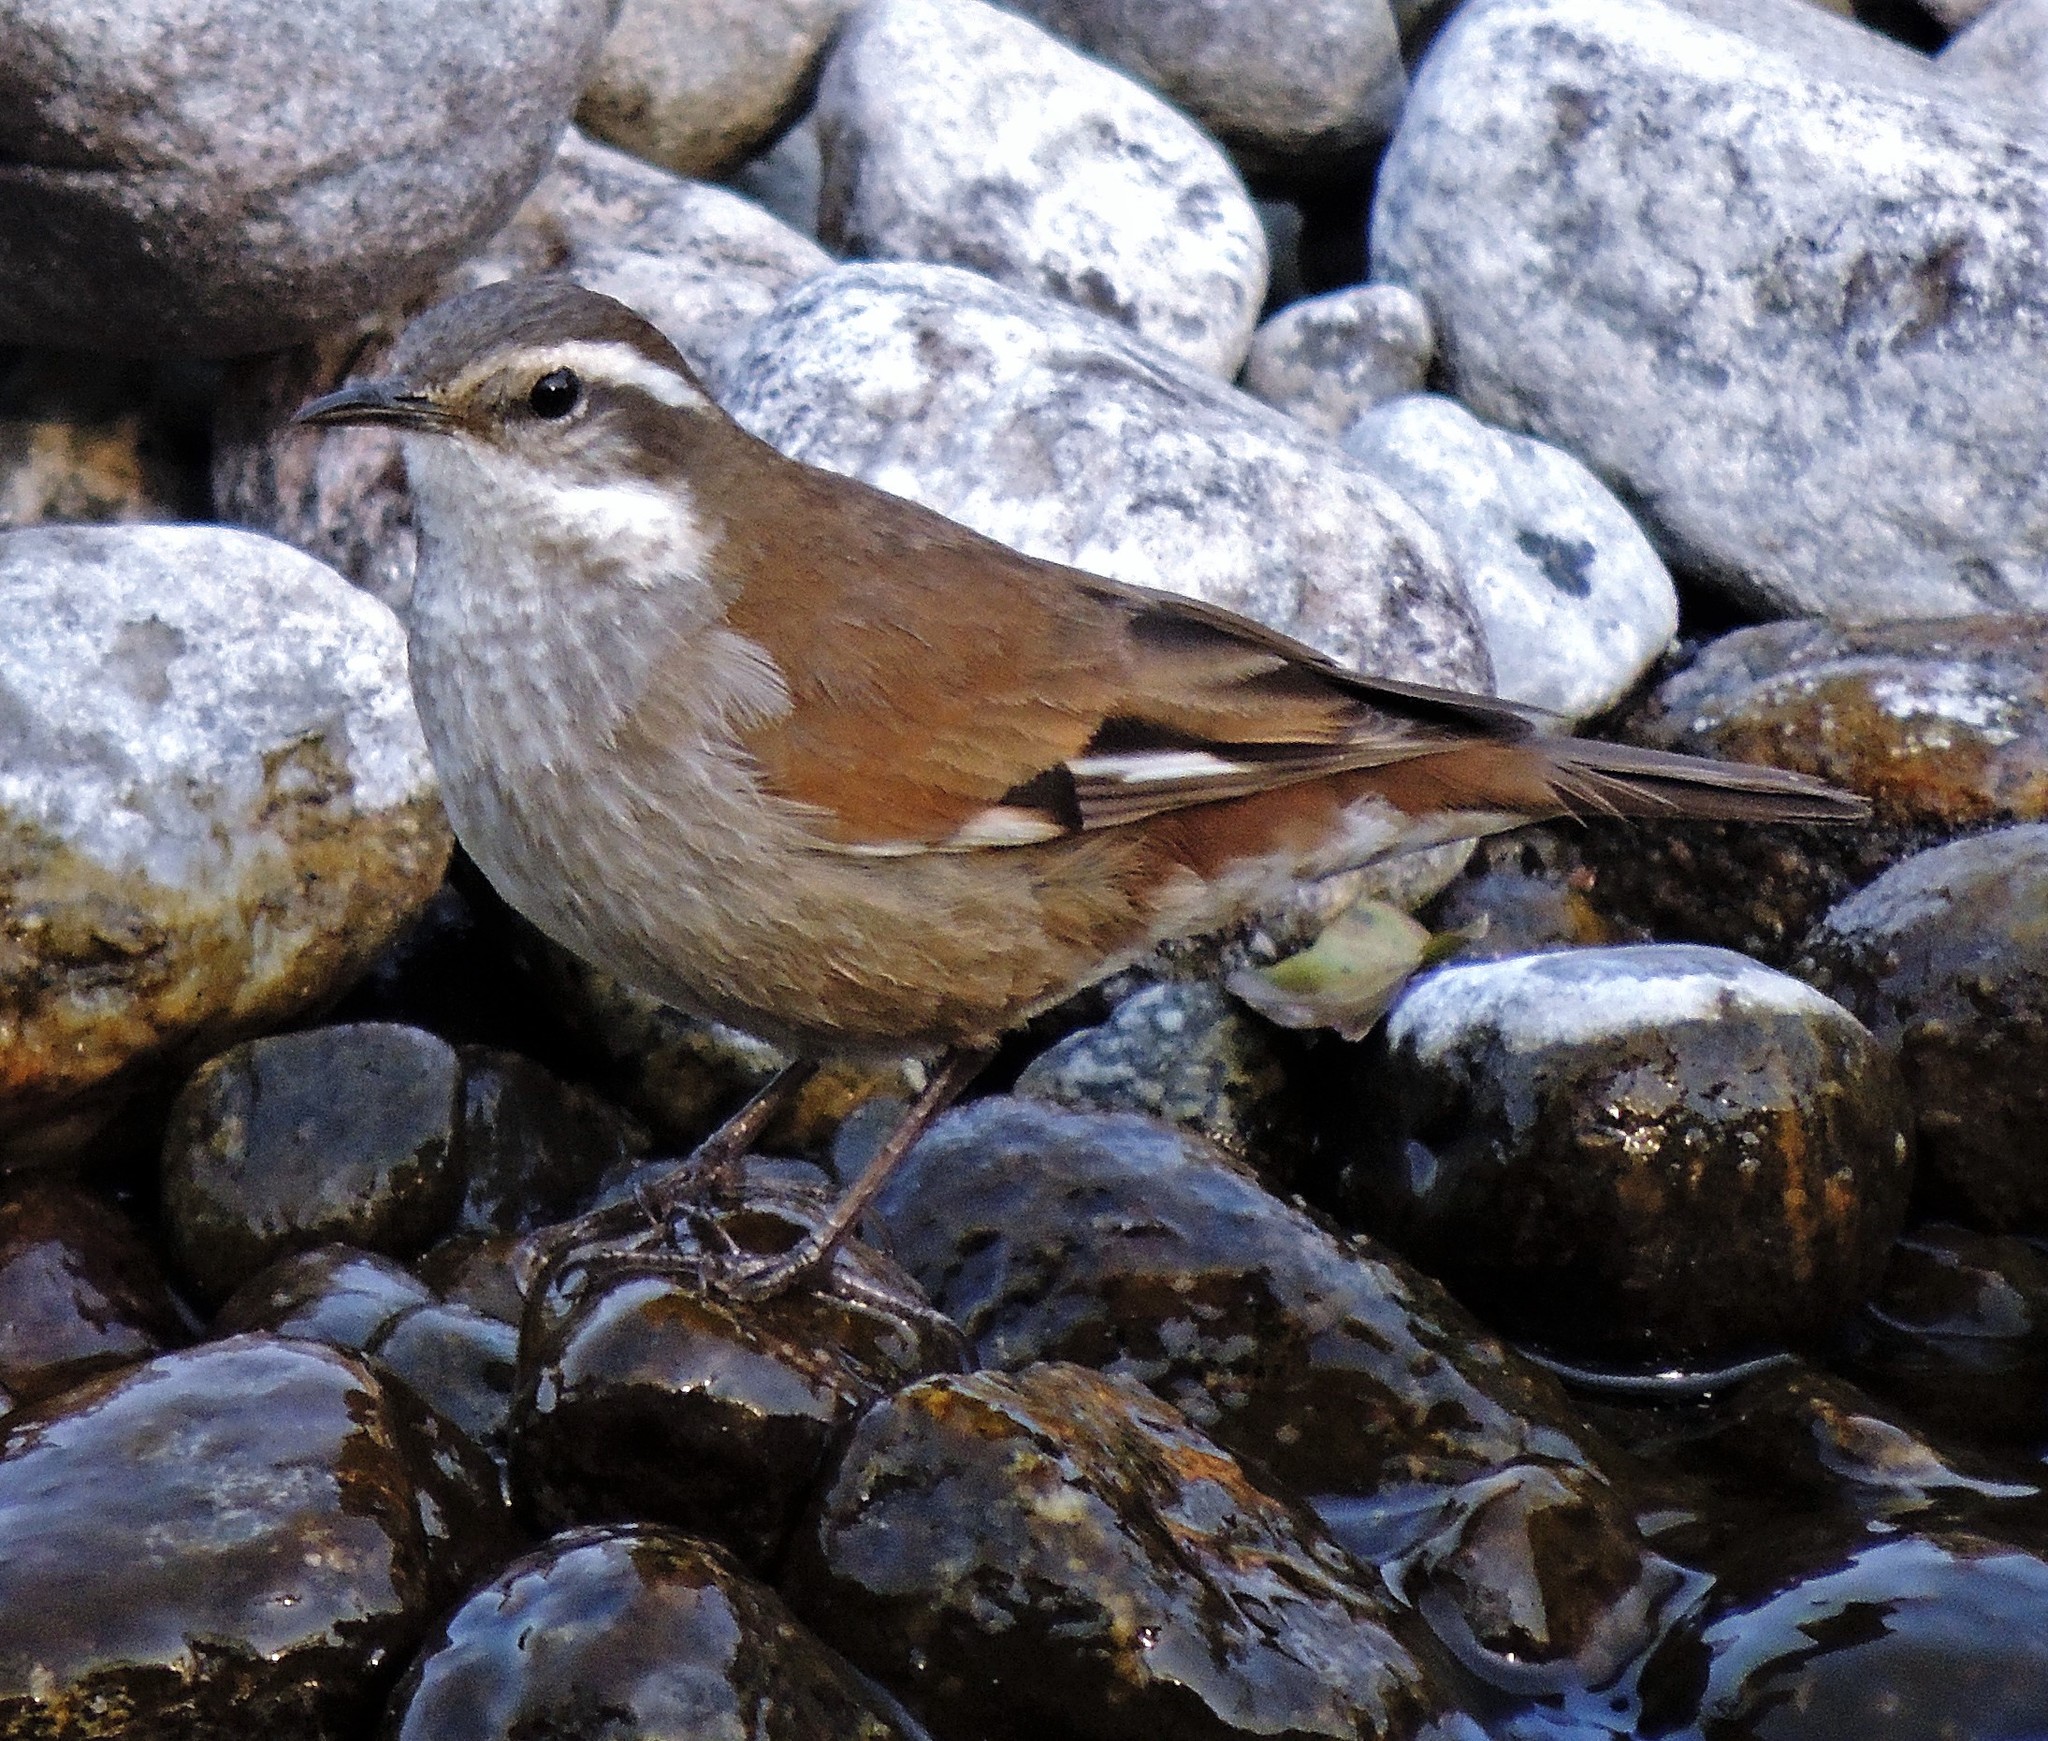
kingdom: Animalia
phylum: Chordata
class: Aves
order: Passeriformes
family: Furnariidae
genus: Cinclodes
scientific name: Cinclodes fuscus
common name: Buff-winged cinclodes
